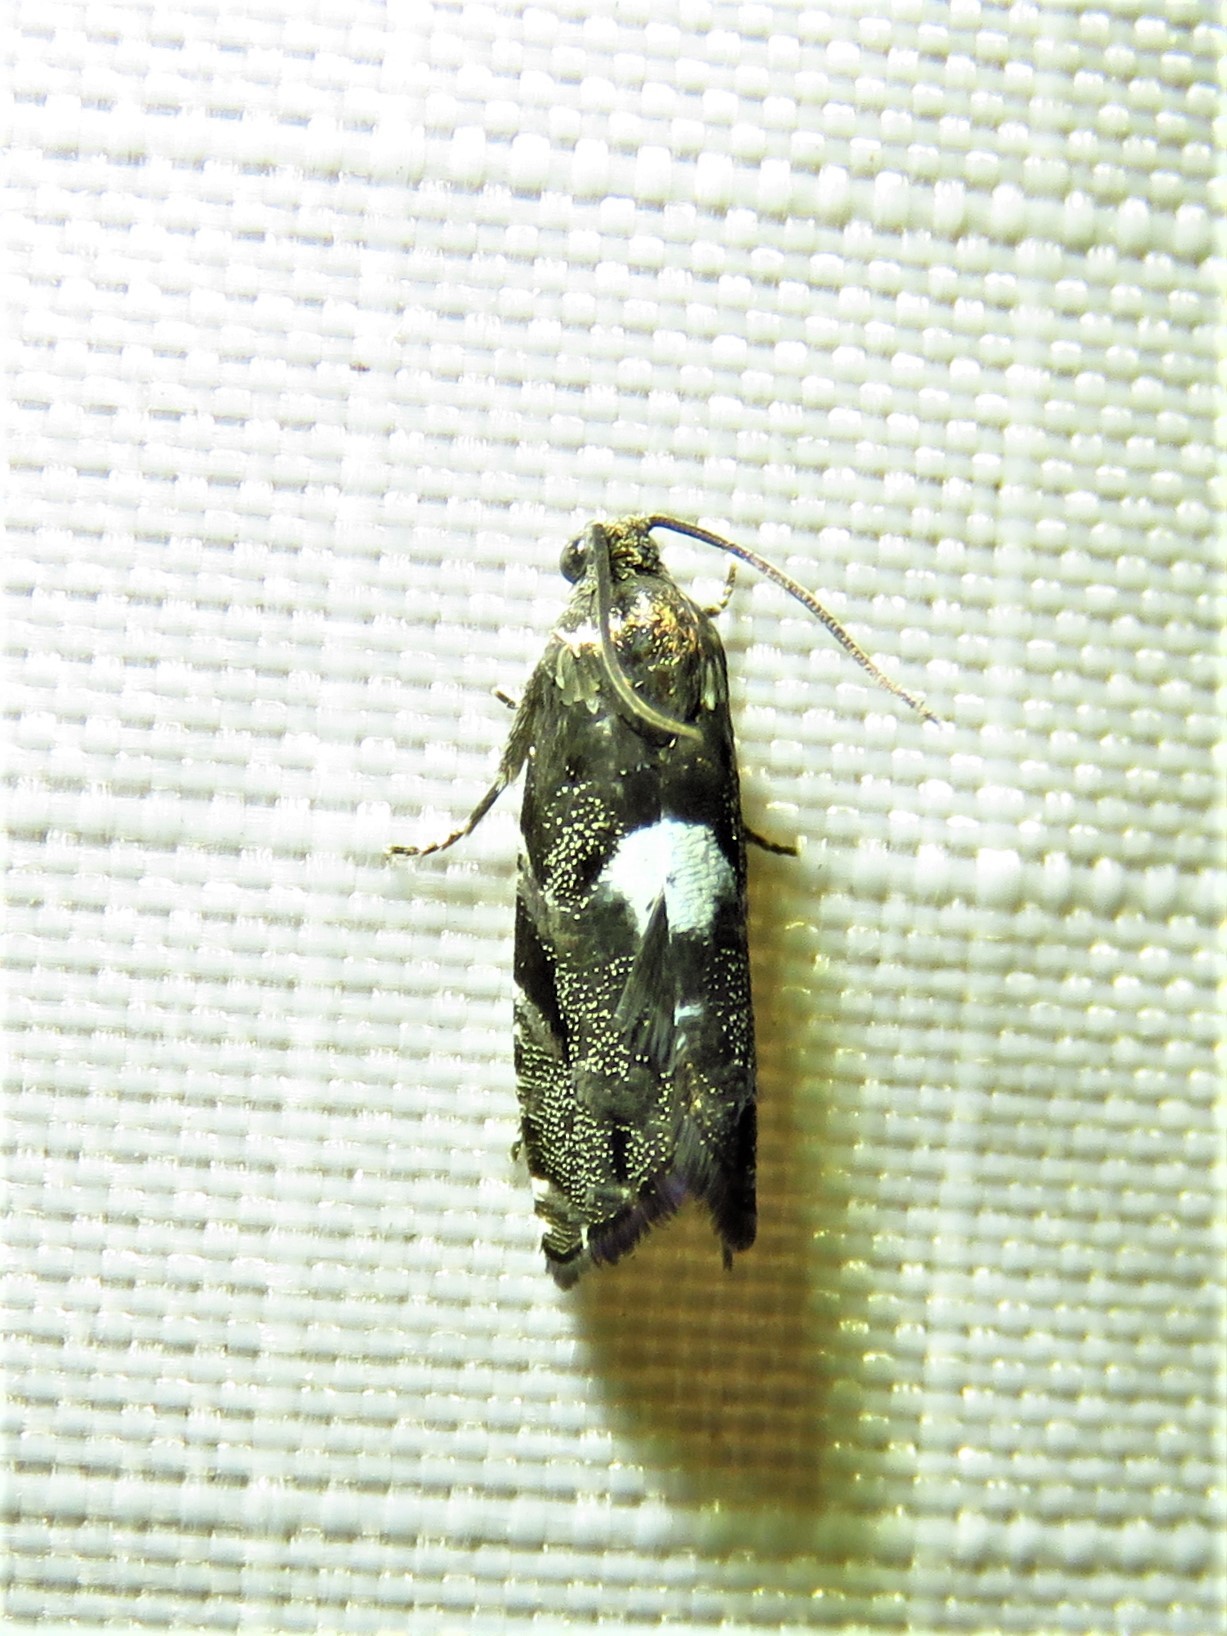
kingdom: Animalia
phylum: Arthropoda
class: Insecta
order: Lepidoptera
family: Tortricidae
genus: Cydia
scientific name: Cydia albimaculana
